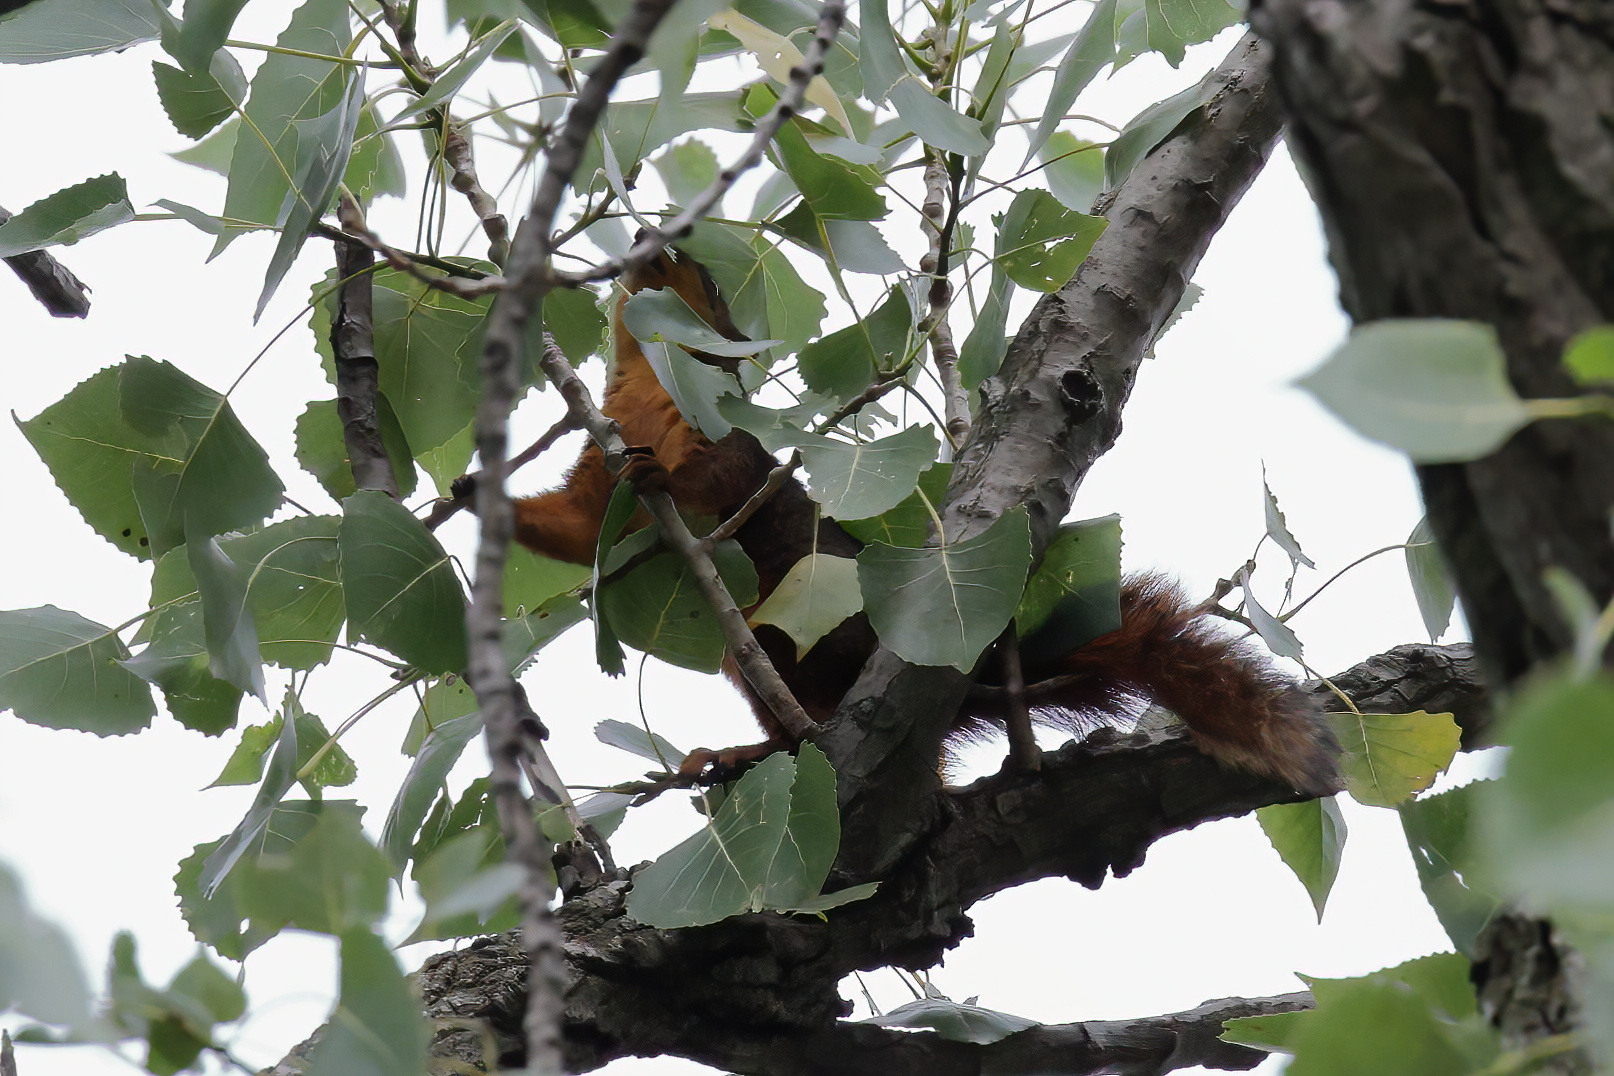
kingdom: Animalia
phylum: Chordata
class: Mammalia
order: Rodentia
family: Sciuridae
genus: Sciurus
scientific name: Sciurus niger
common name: Fox squirrel
